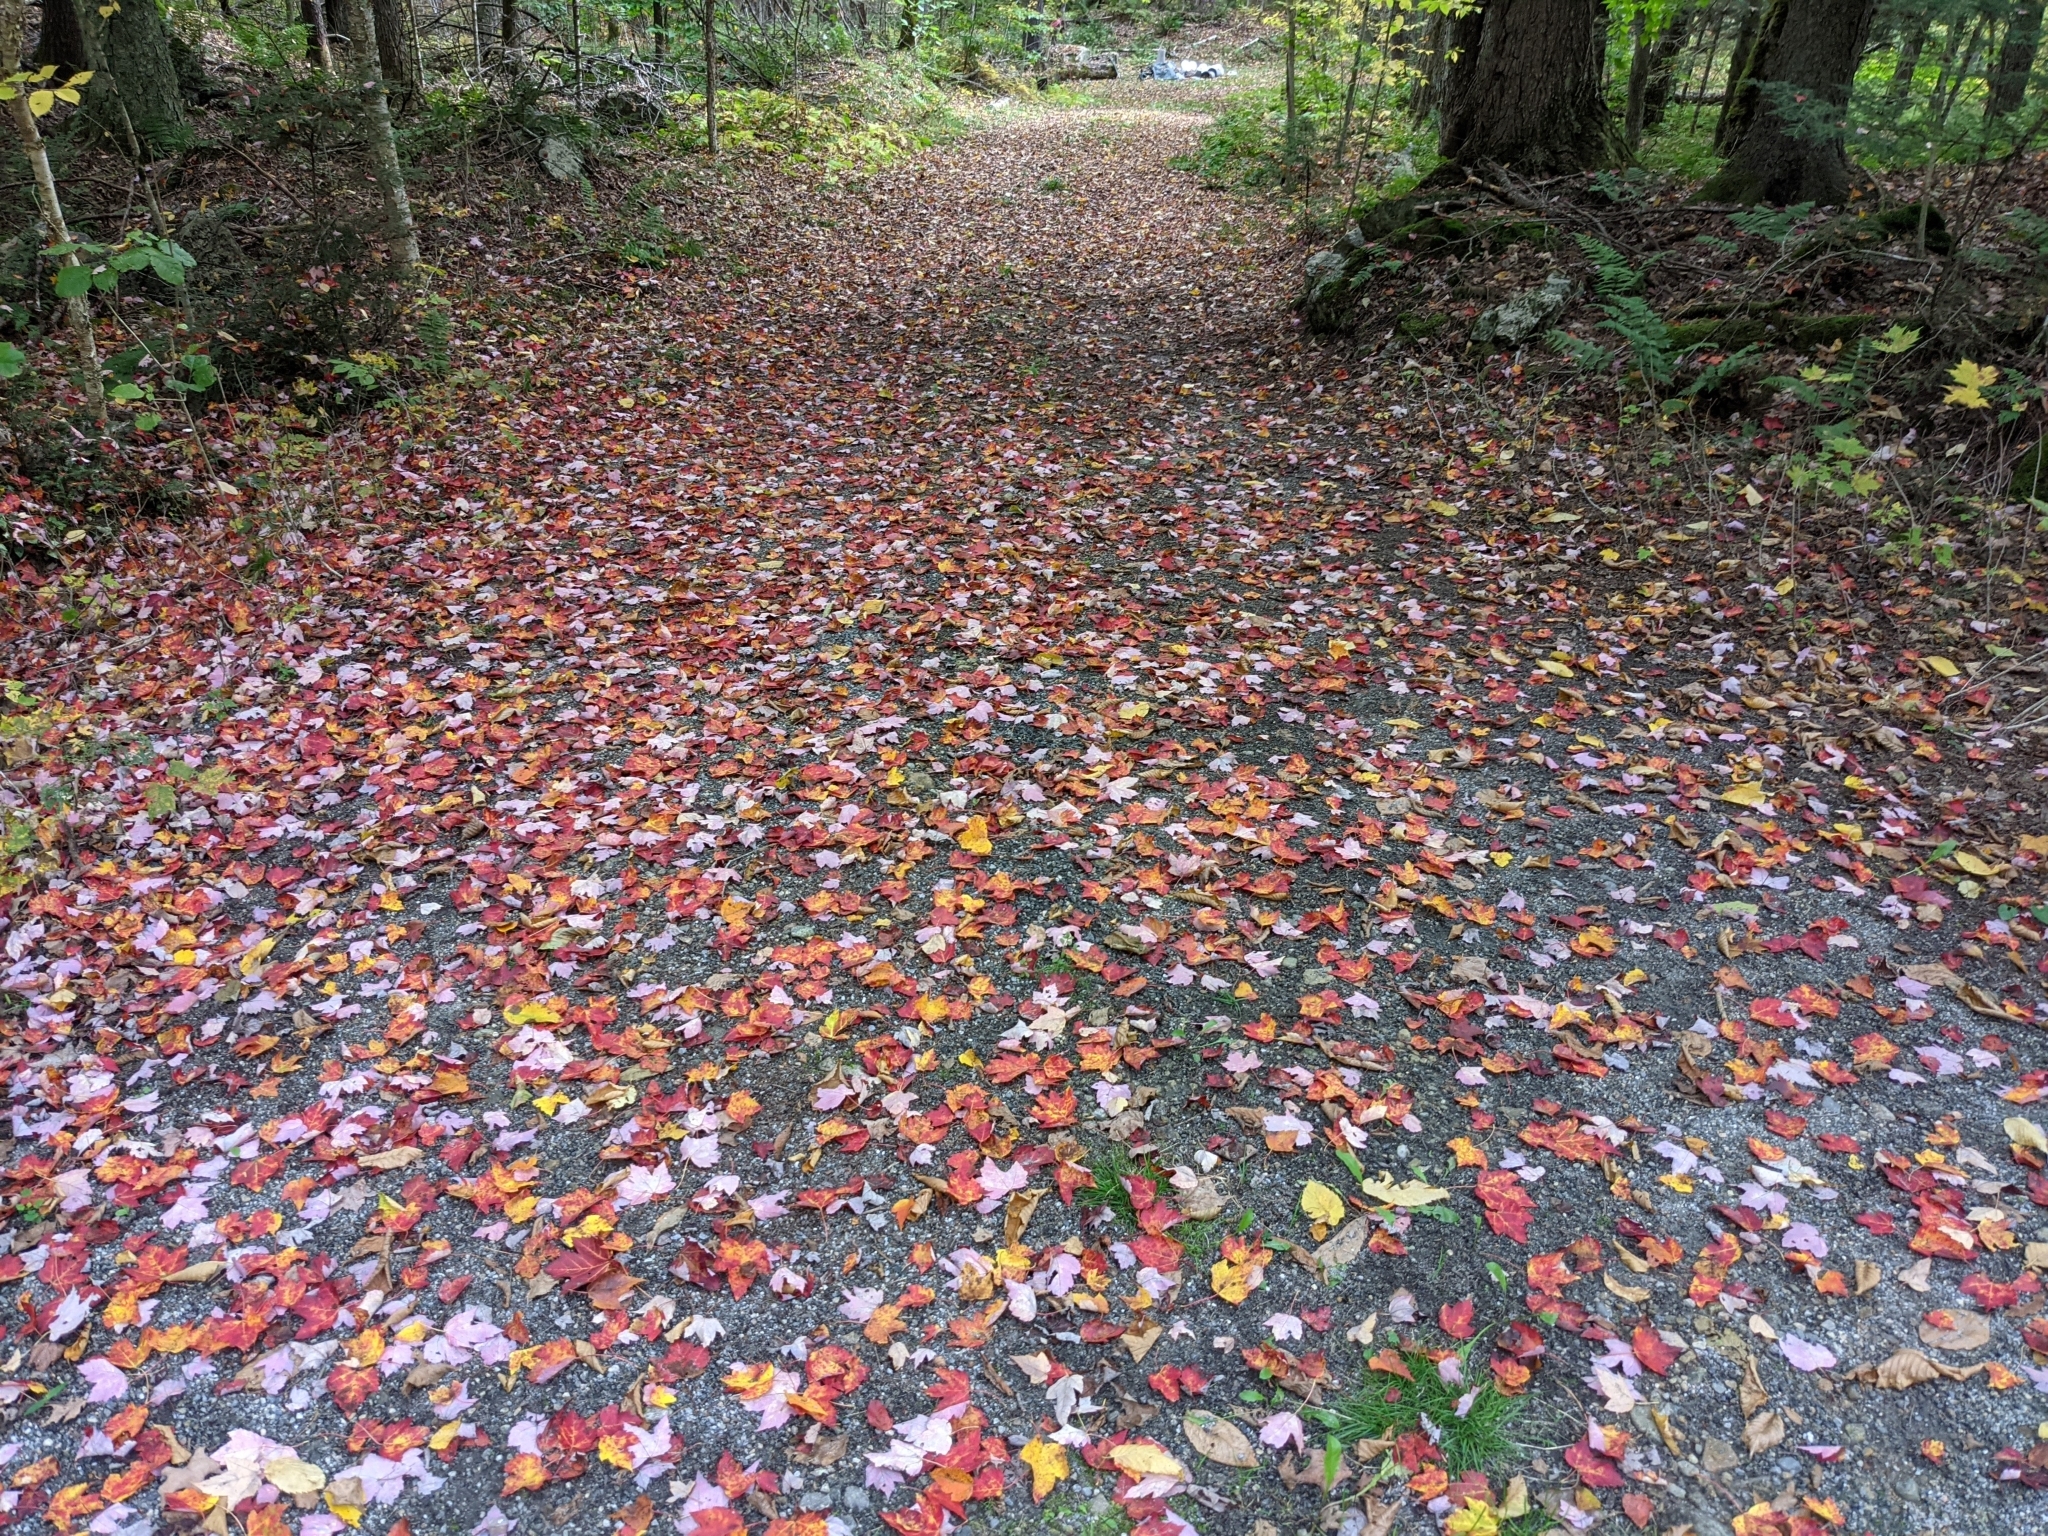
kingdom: Plantae
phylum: Tracheophyta
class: Magnoliopsida
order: Sapindales
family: Sapindaceae
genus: Acer
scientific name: Acer rubrum
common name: Red maple
